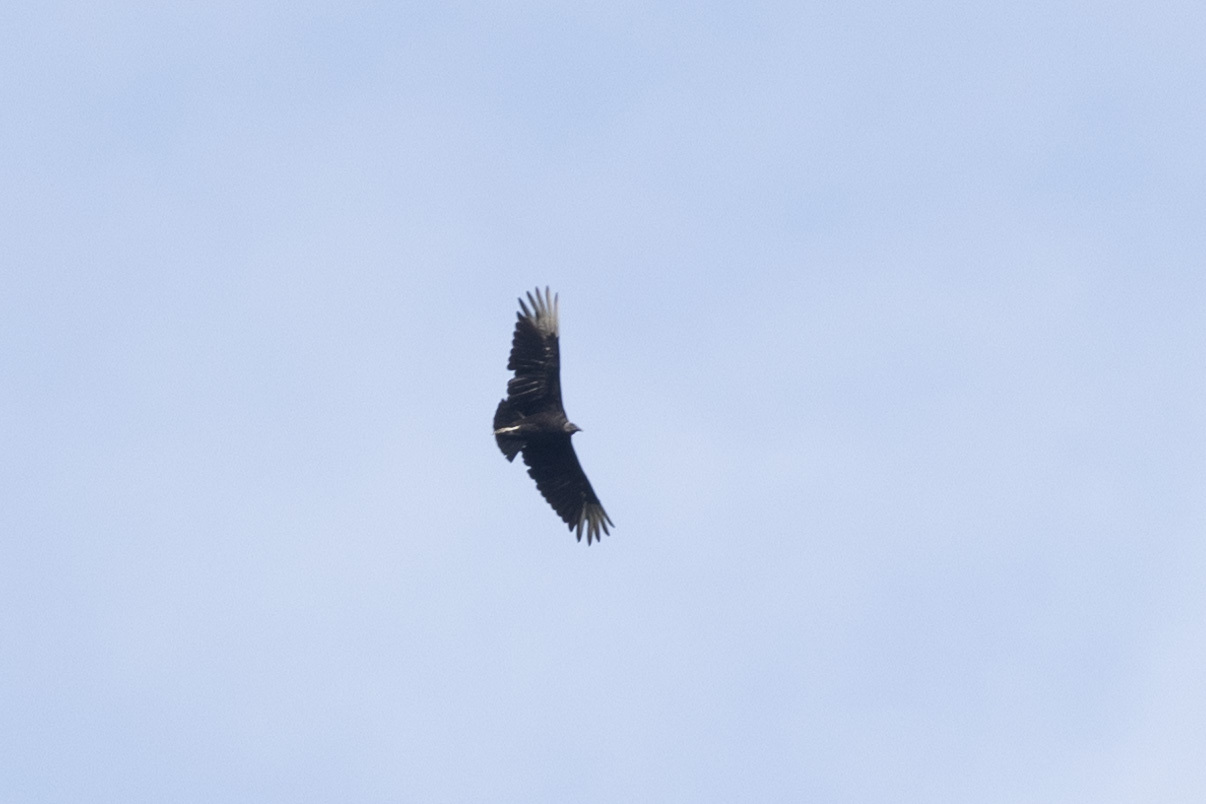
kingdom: Animalia
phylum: Chordata
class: Aves
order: Accipitriformes
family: Cathartidae
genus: Coragyps
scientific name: Coragyps atratus
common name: Black vulture
